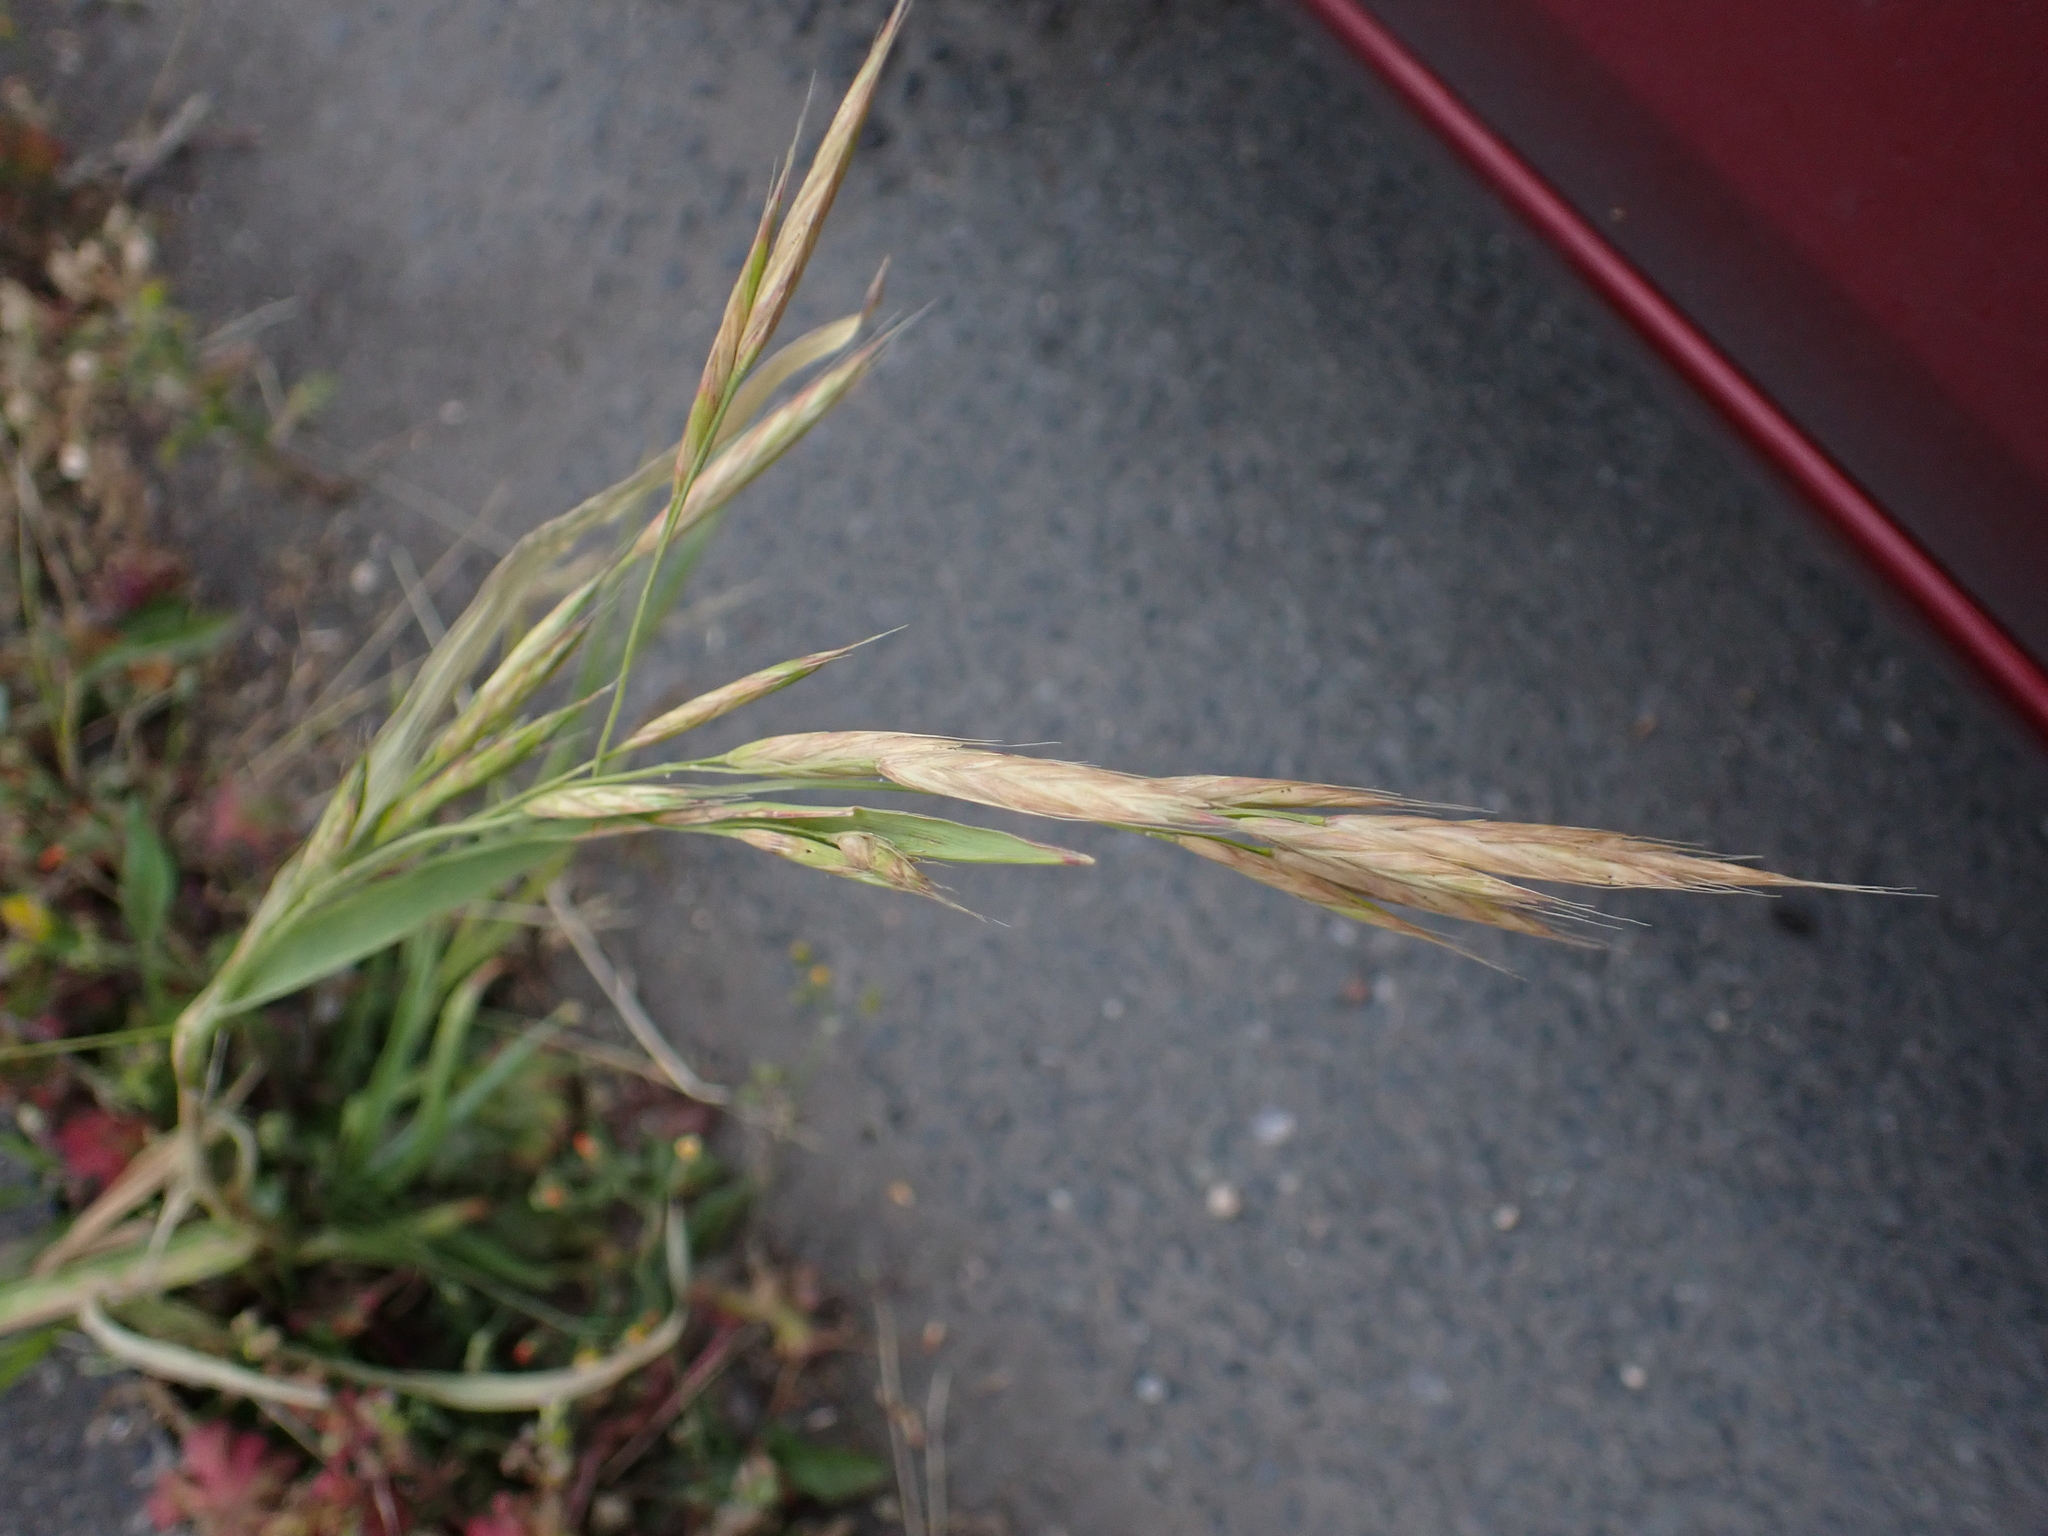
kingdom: Plantae
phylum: Tracheophyta
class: Liliopsida
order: Poales
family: Poaceae
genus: Bromus
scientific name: Bromus carinatus
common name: Mountain brome
